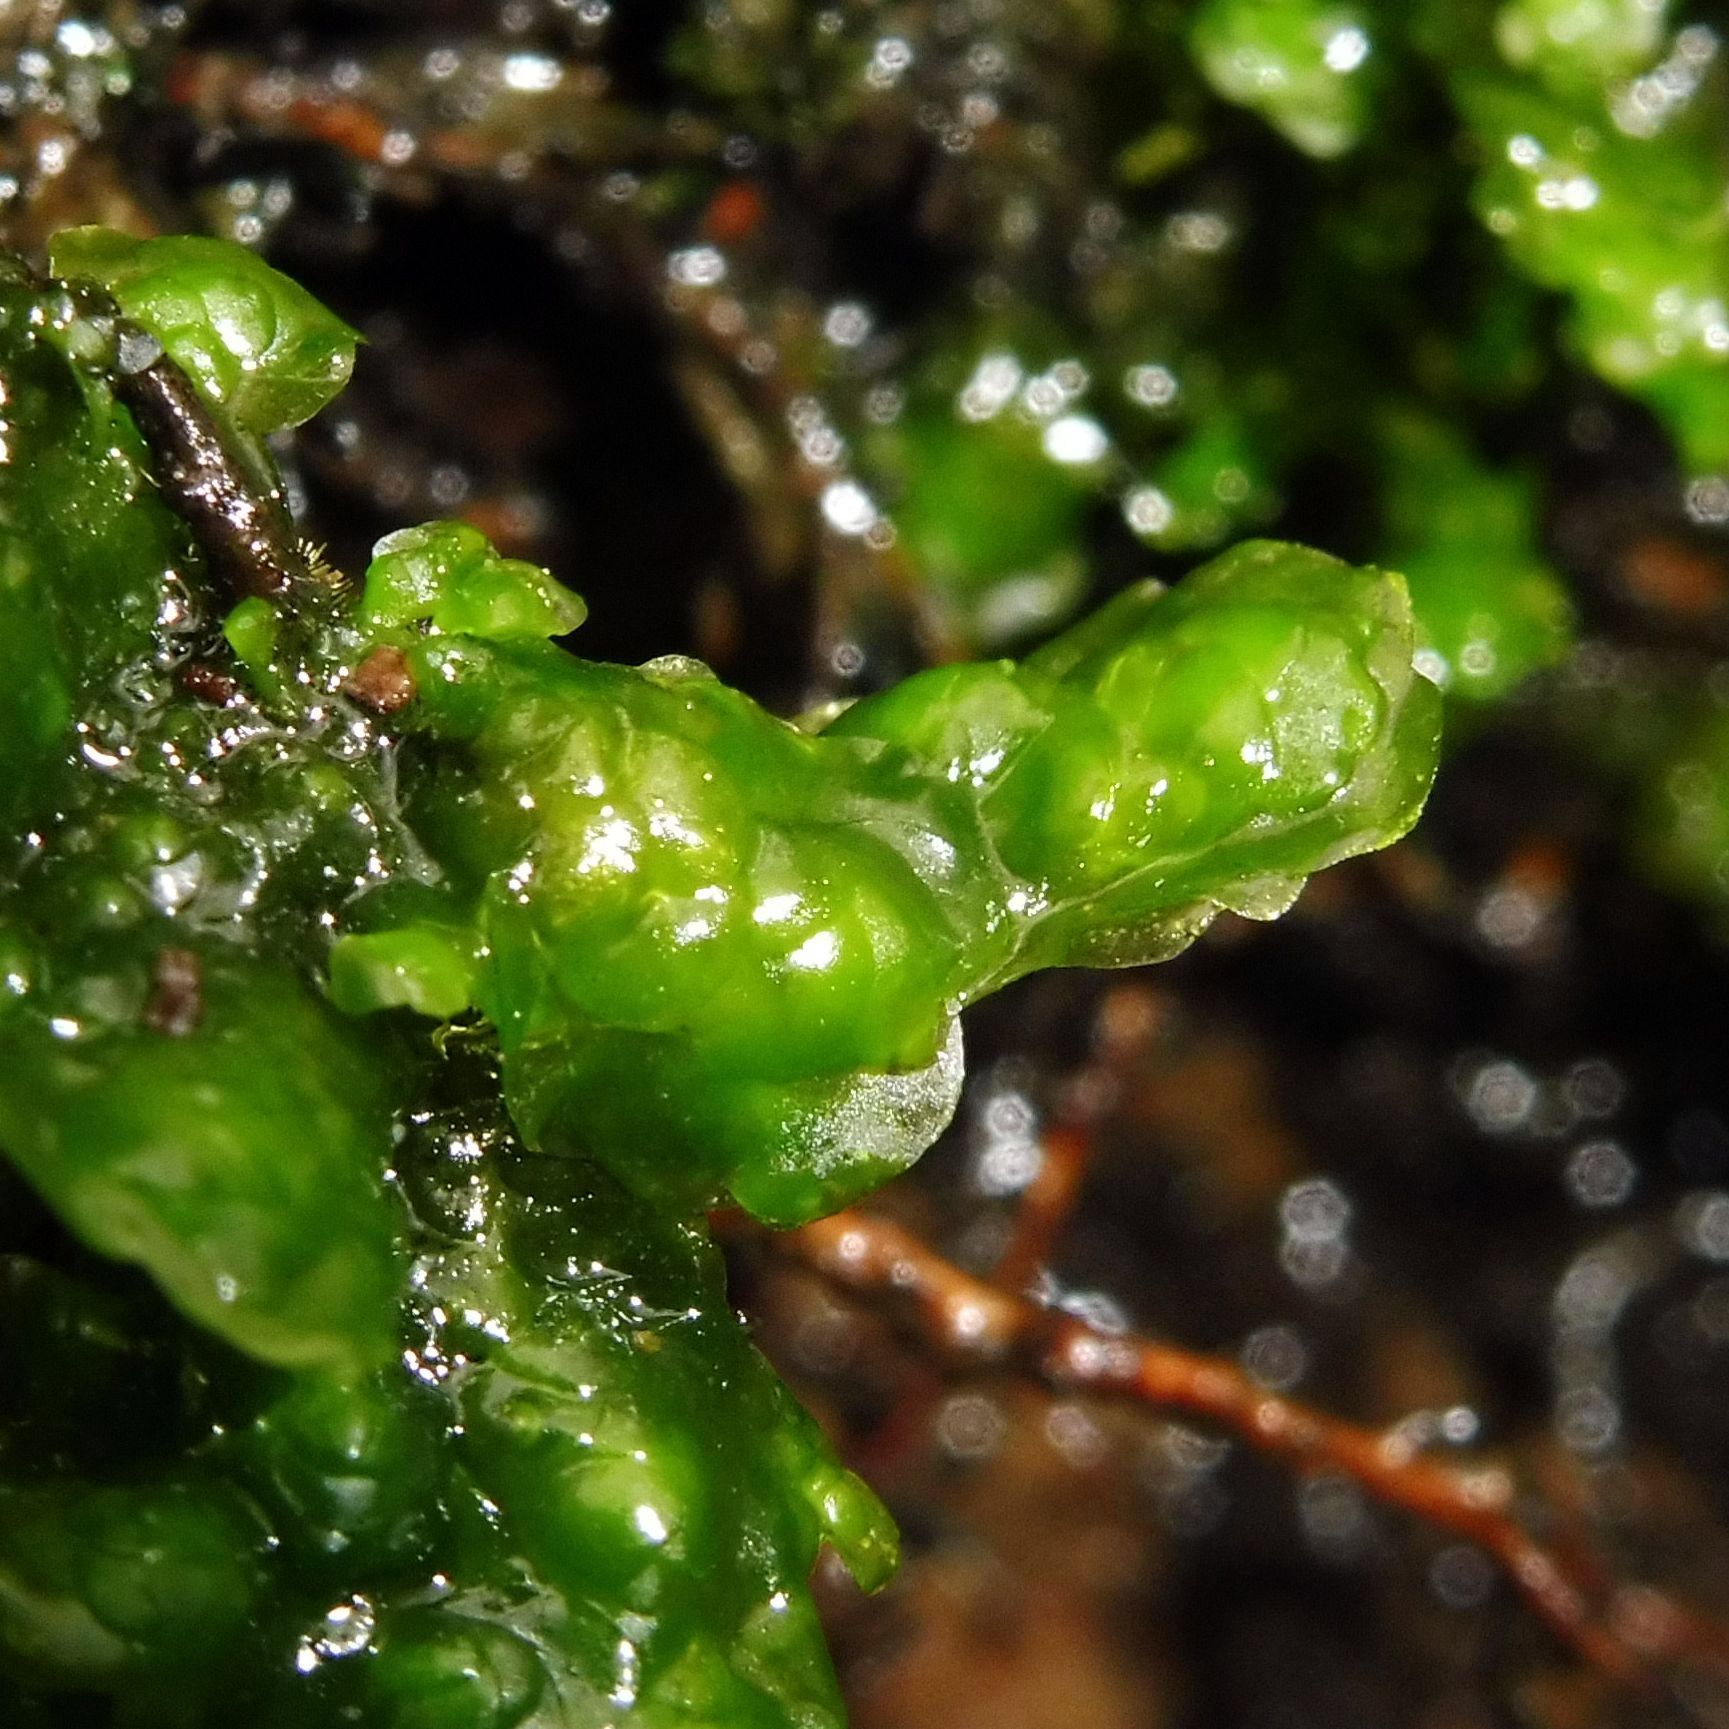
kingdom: Plantae
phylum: Marchantiophyta
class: Jungermanniopsida
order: Jungermanniales
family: Scapaniaceae
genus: Scapania
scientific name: Scapania undulata
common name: Water earwort
